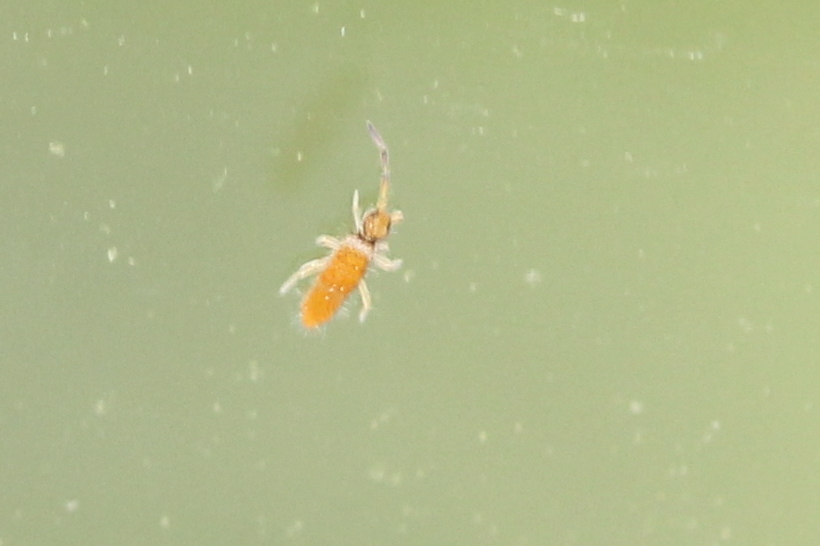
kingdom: Animalia
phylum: Arthropoda
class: Collembola
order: Entomobryomorpha
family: Entomobryidae
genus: Entomobrya
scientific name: Entomobrya atrocincta
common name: Springtail
